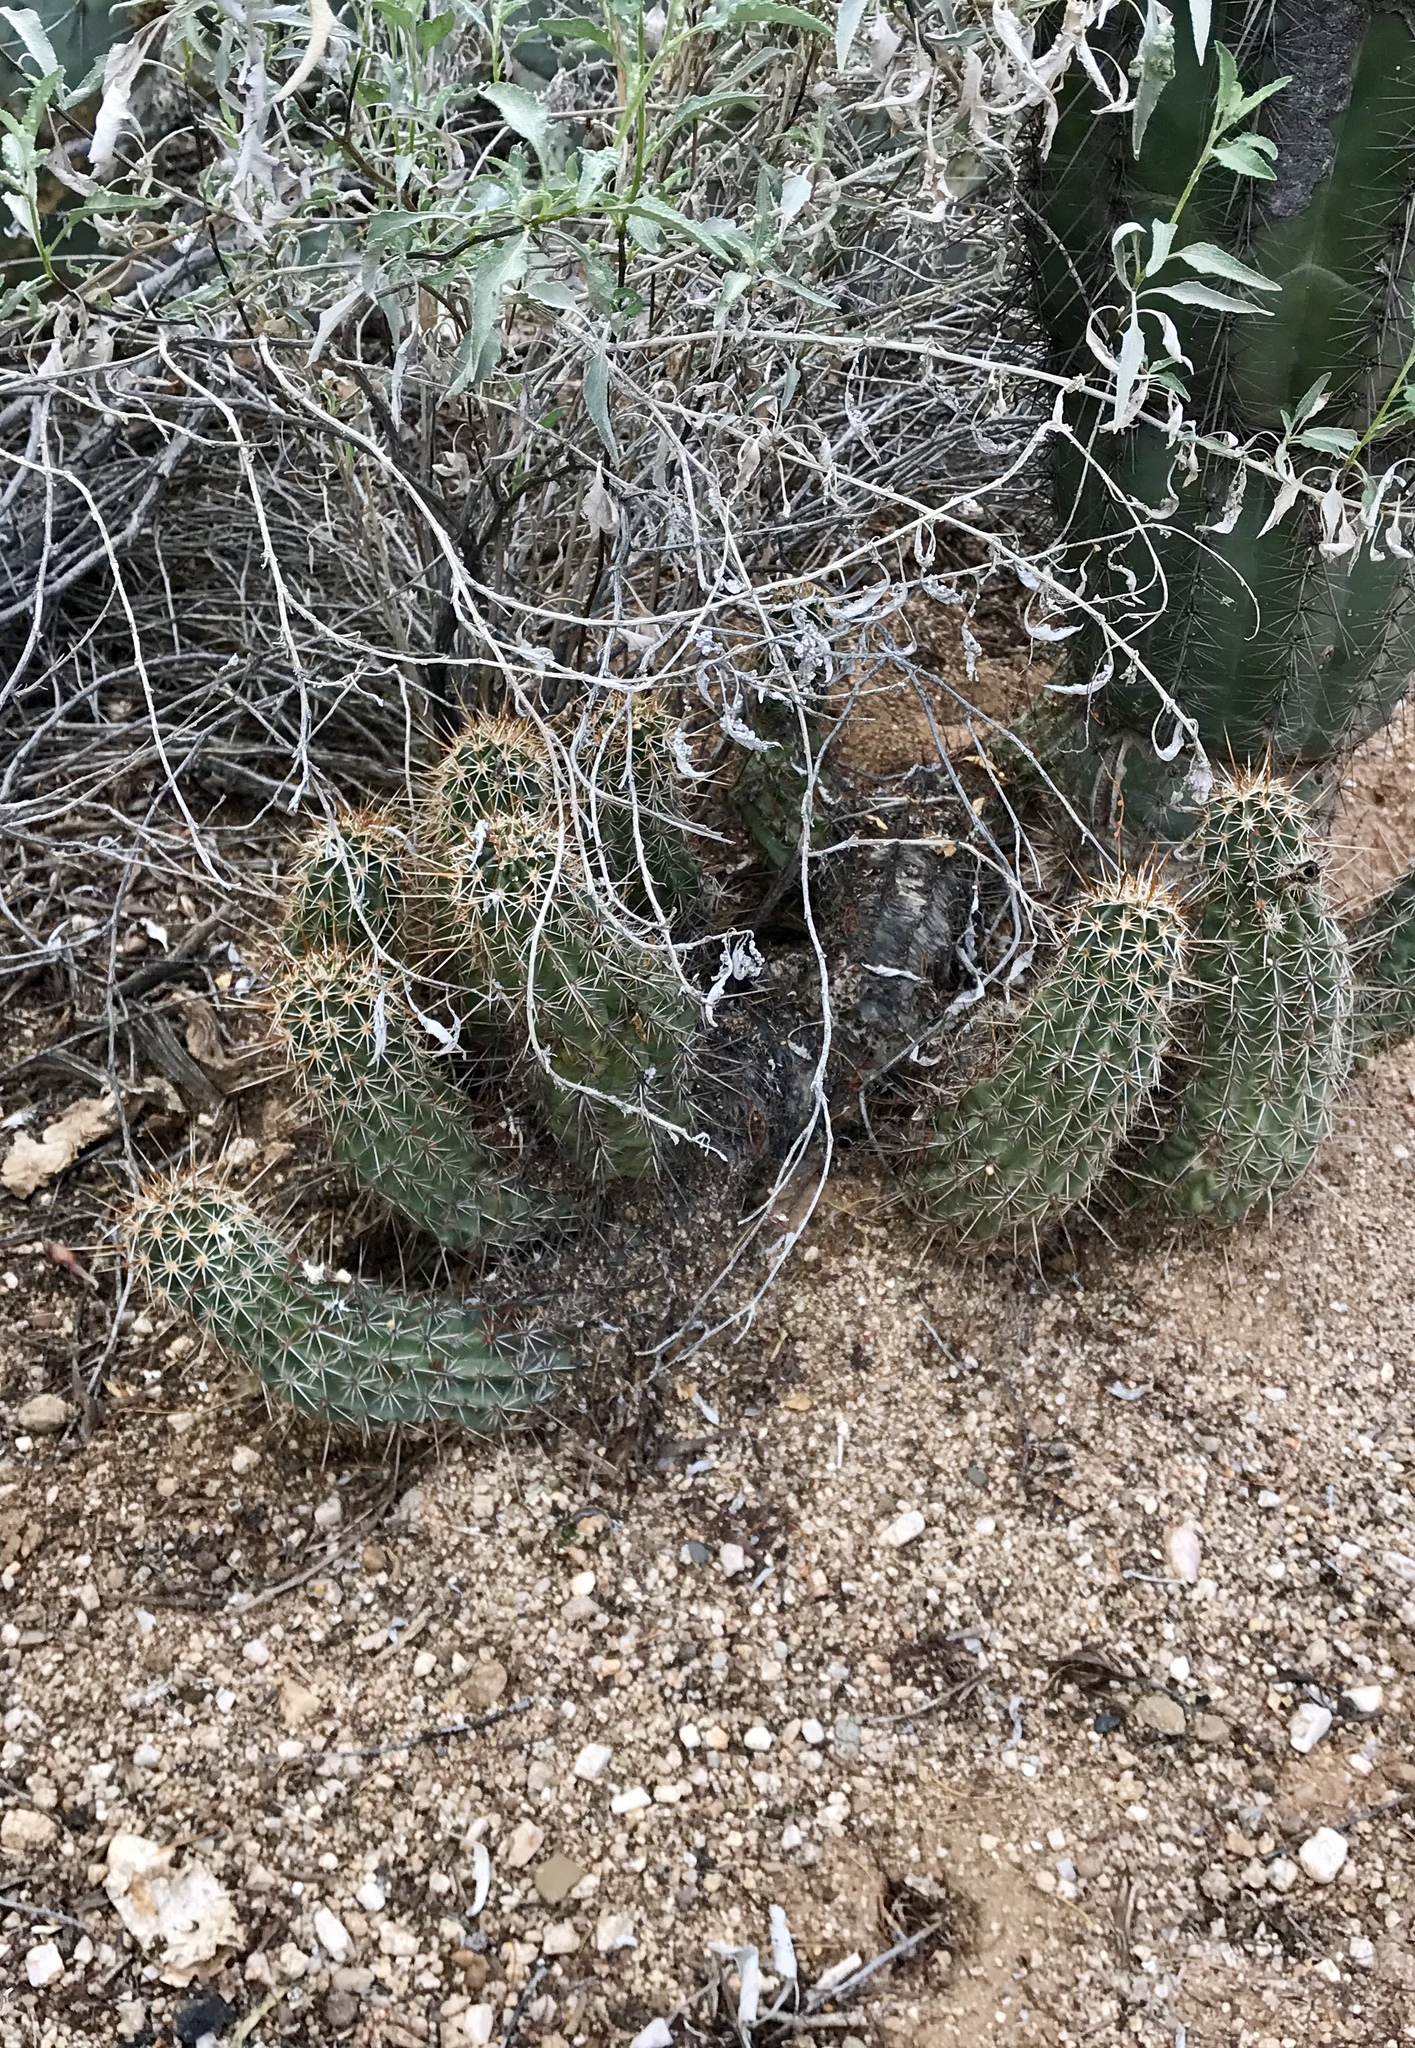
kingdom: Plantae
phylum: Tracheophyta
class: Magnoliopsida
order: Caryophyllales
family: Cactaceae
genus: Echinocereus
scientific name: Echinocereus fasciculatus
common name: Bundle hedgehog
